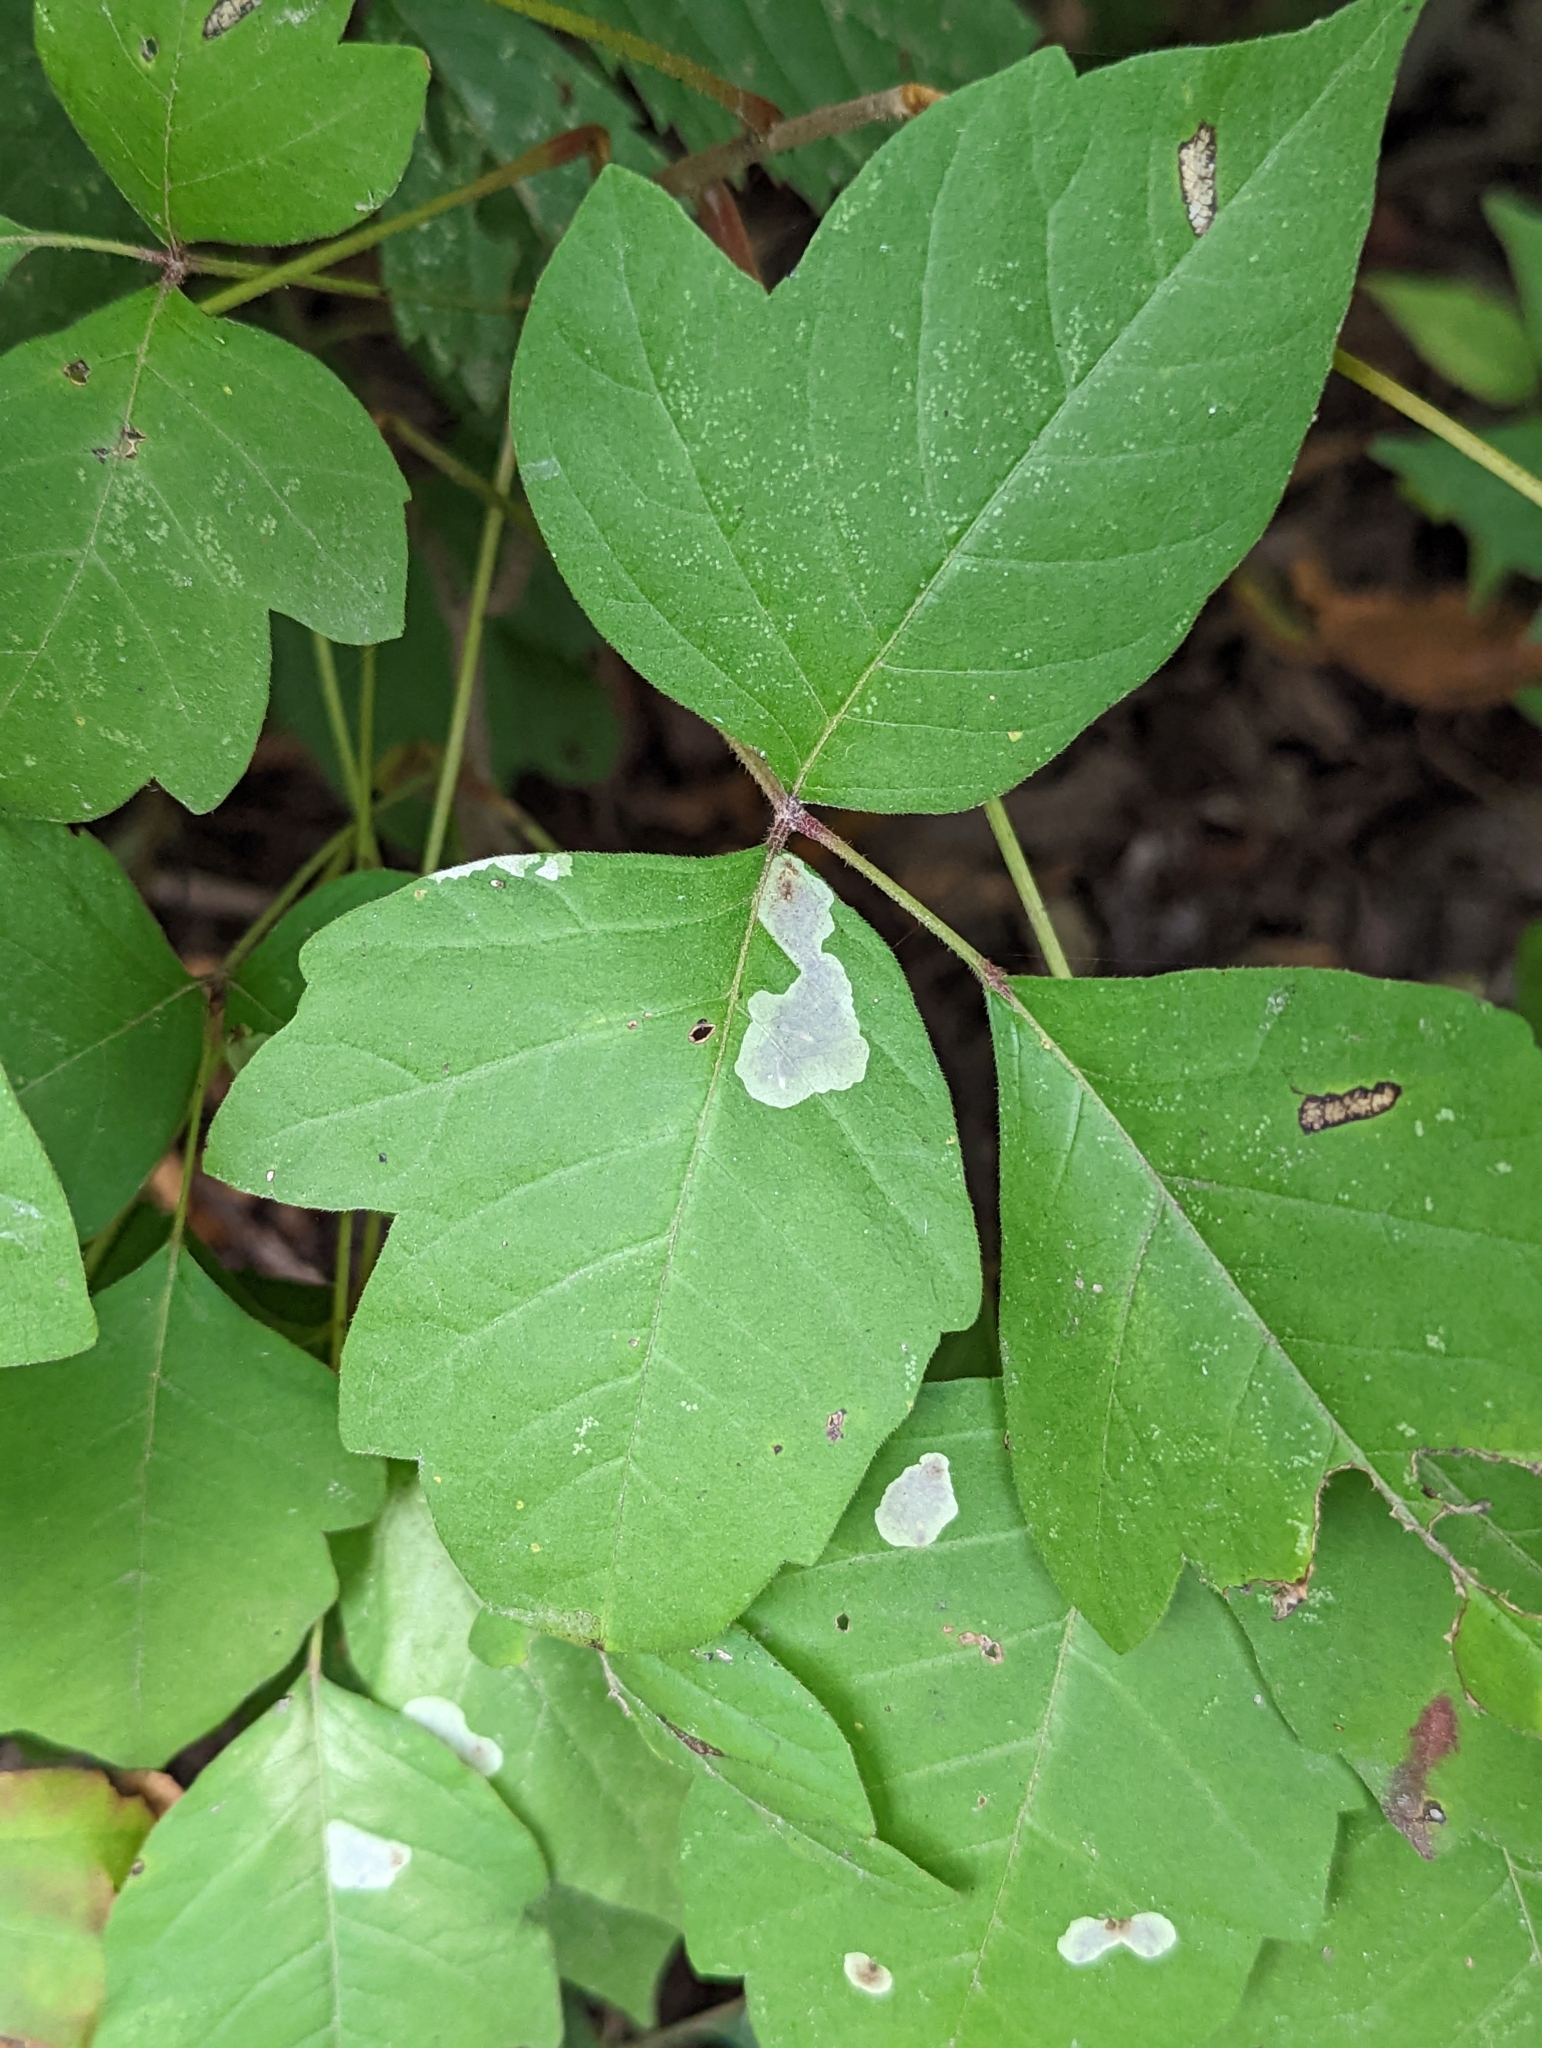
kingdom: Animalia
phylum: Arthropoda
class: Insecta
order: Lepidoptera
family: Gracillariidae
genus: Cameraria
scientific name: Cameraria guttifinitella
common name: Poison ivy leaf-miner moth
